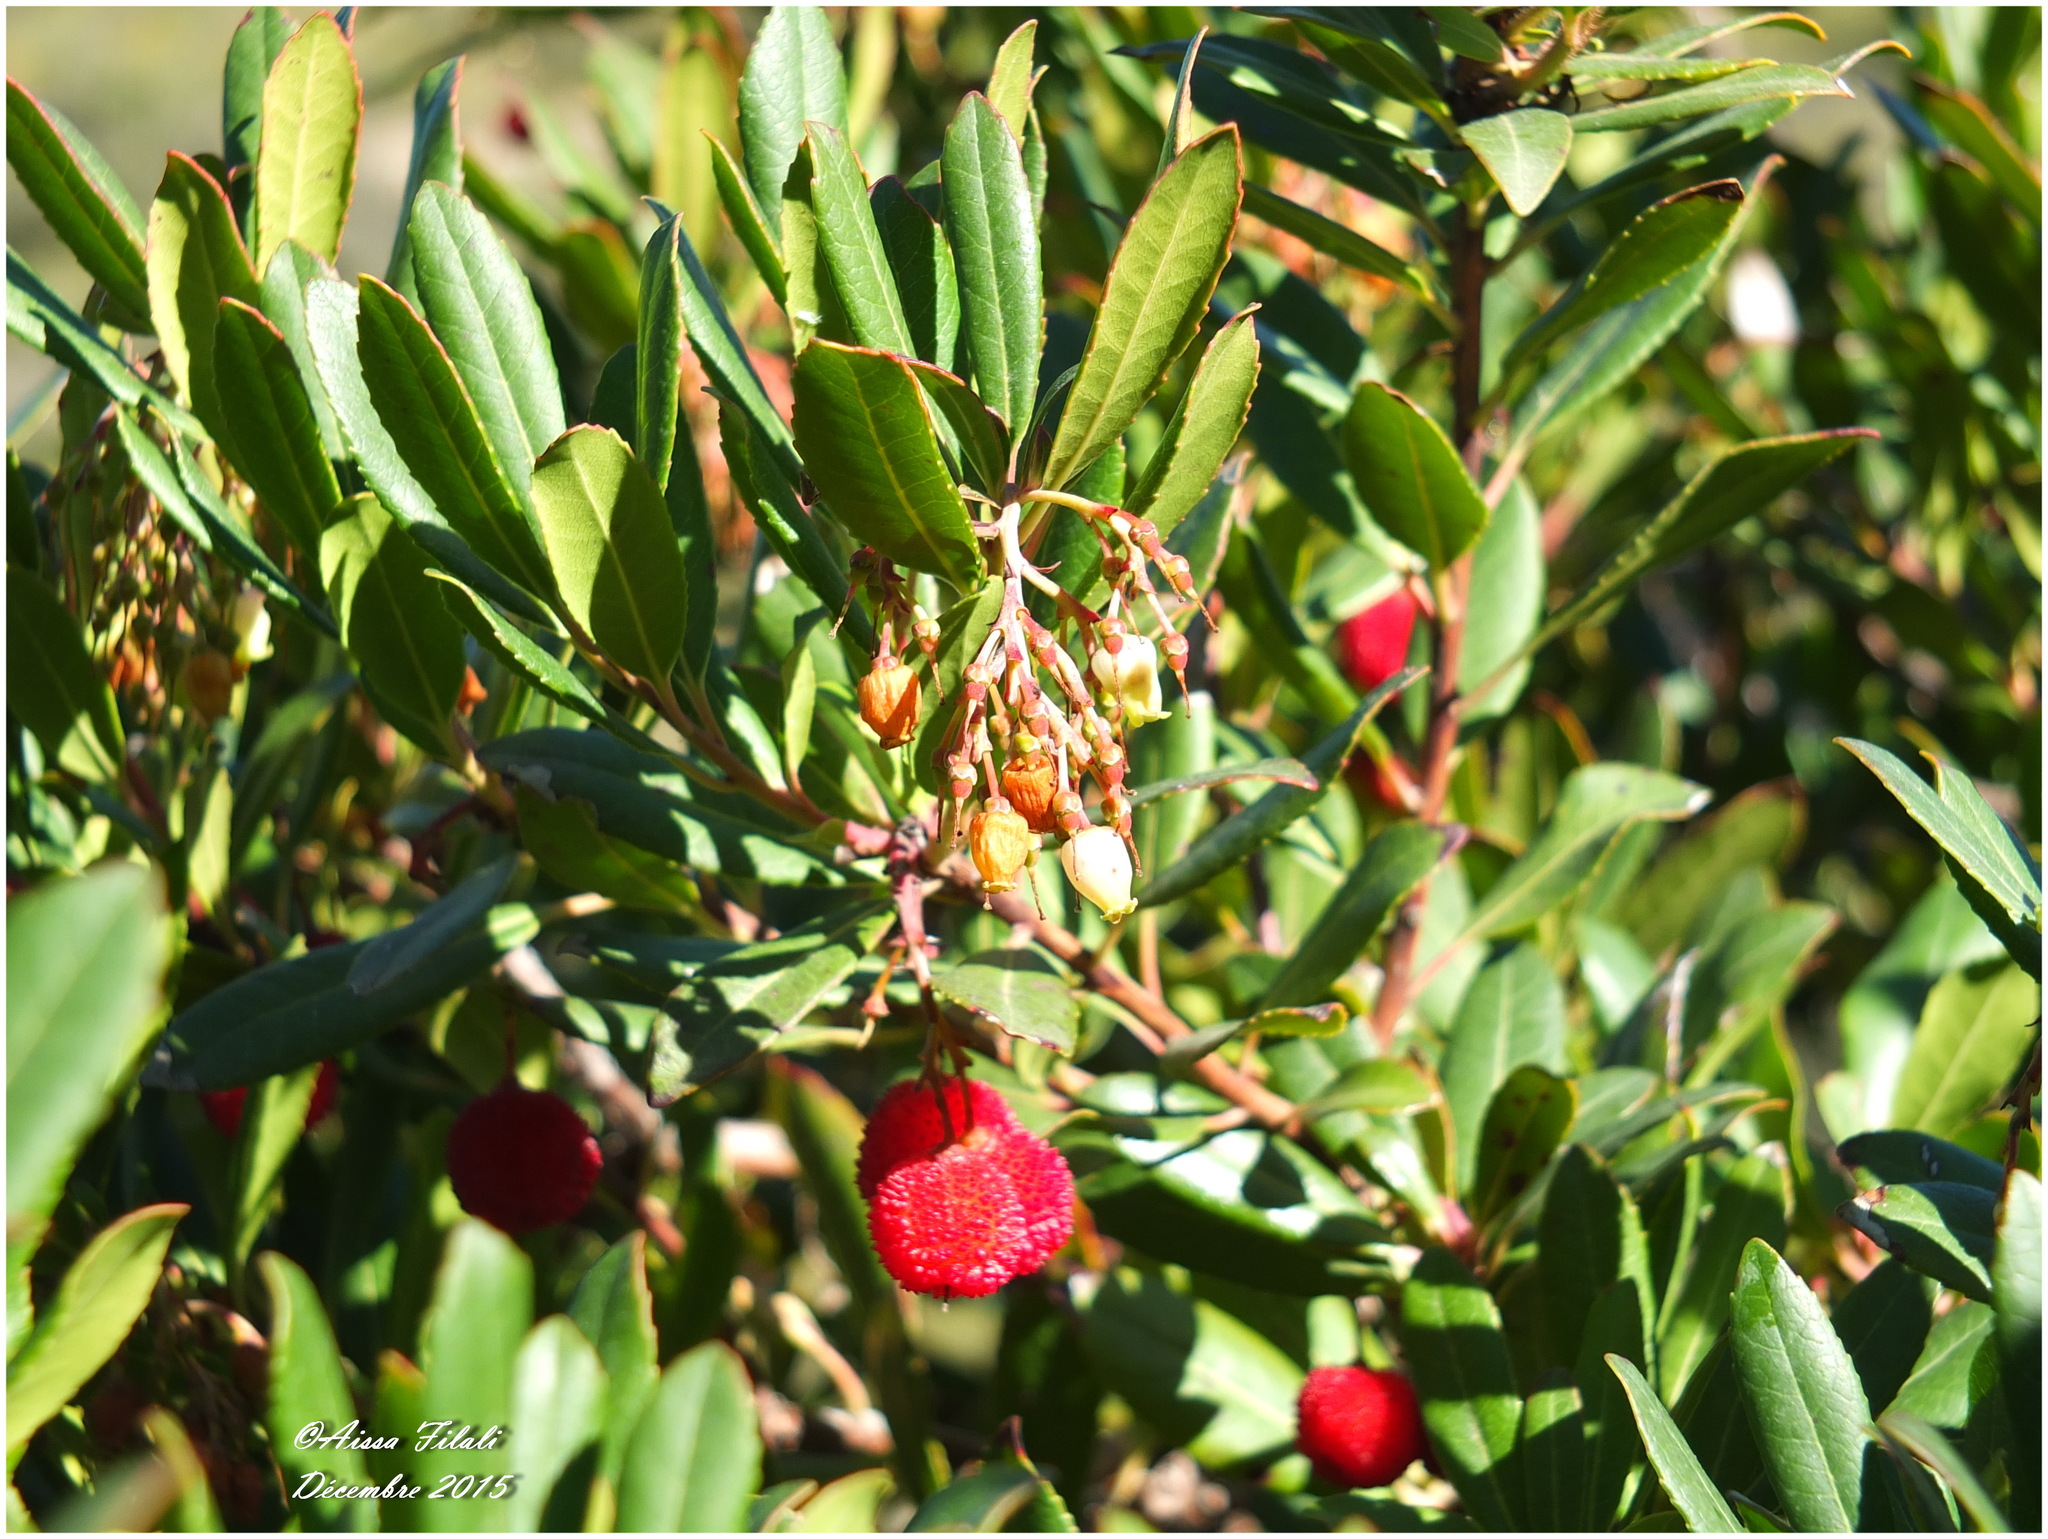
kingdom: Plantae
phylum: Tracheophyta
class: Magnoliopsida
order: Ericales
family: Ericaceae
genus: Arbutus
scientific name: Arbutus unedo
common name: Strawberry-tree
